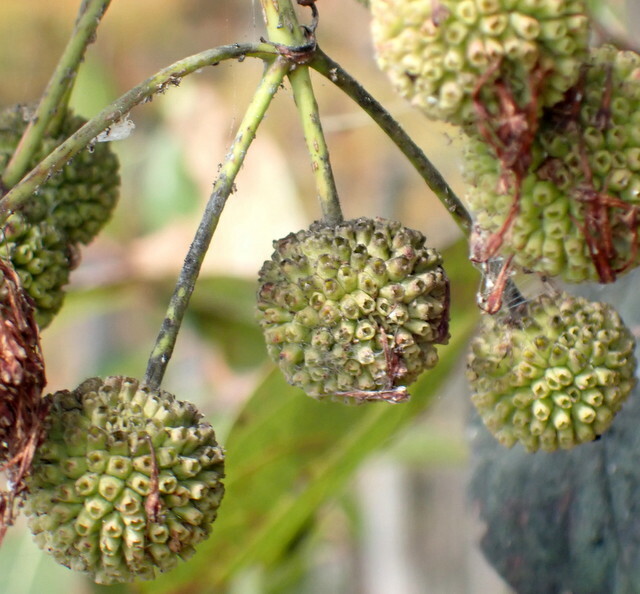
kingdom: Plantae
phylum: Tracheophyta
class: Magnoliopsida
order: Gentianales
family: Rubiaceae
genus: Cephalanthus
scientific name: Cephalanthus occidentalis
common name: Button-willow
